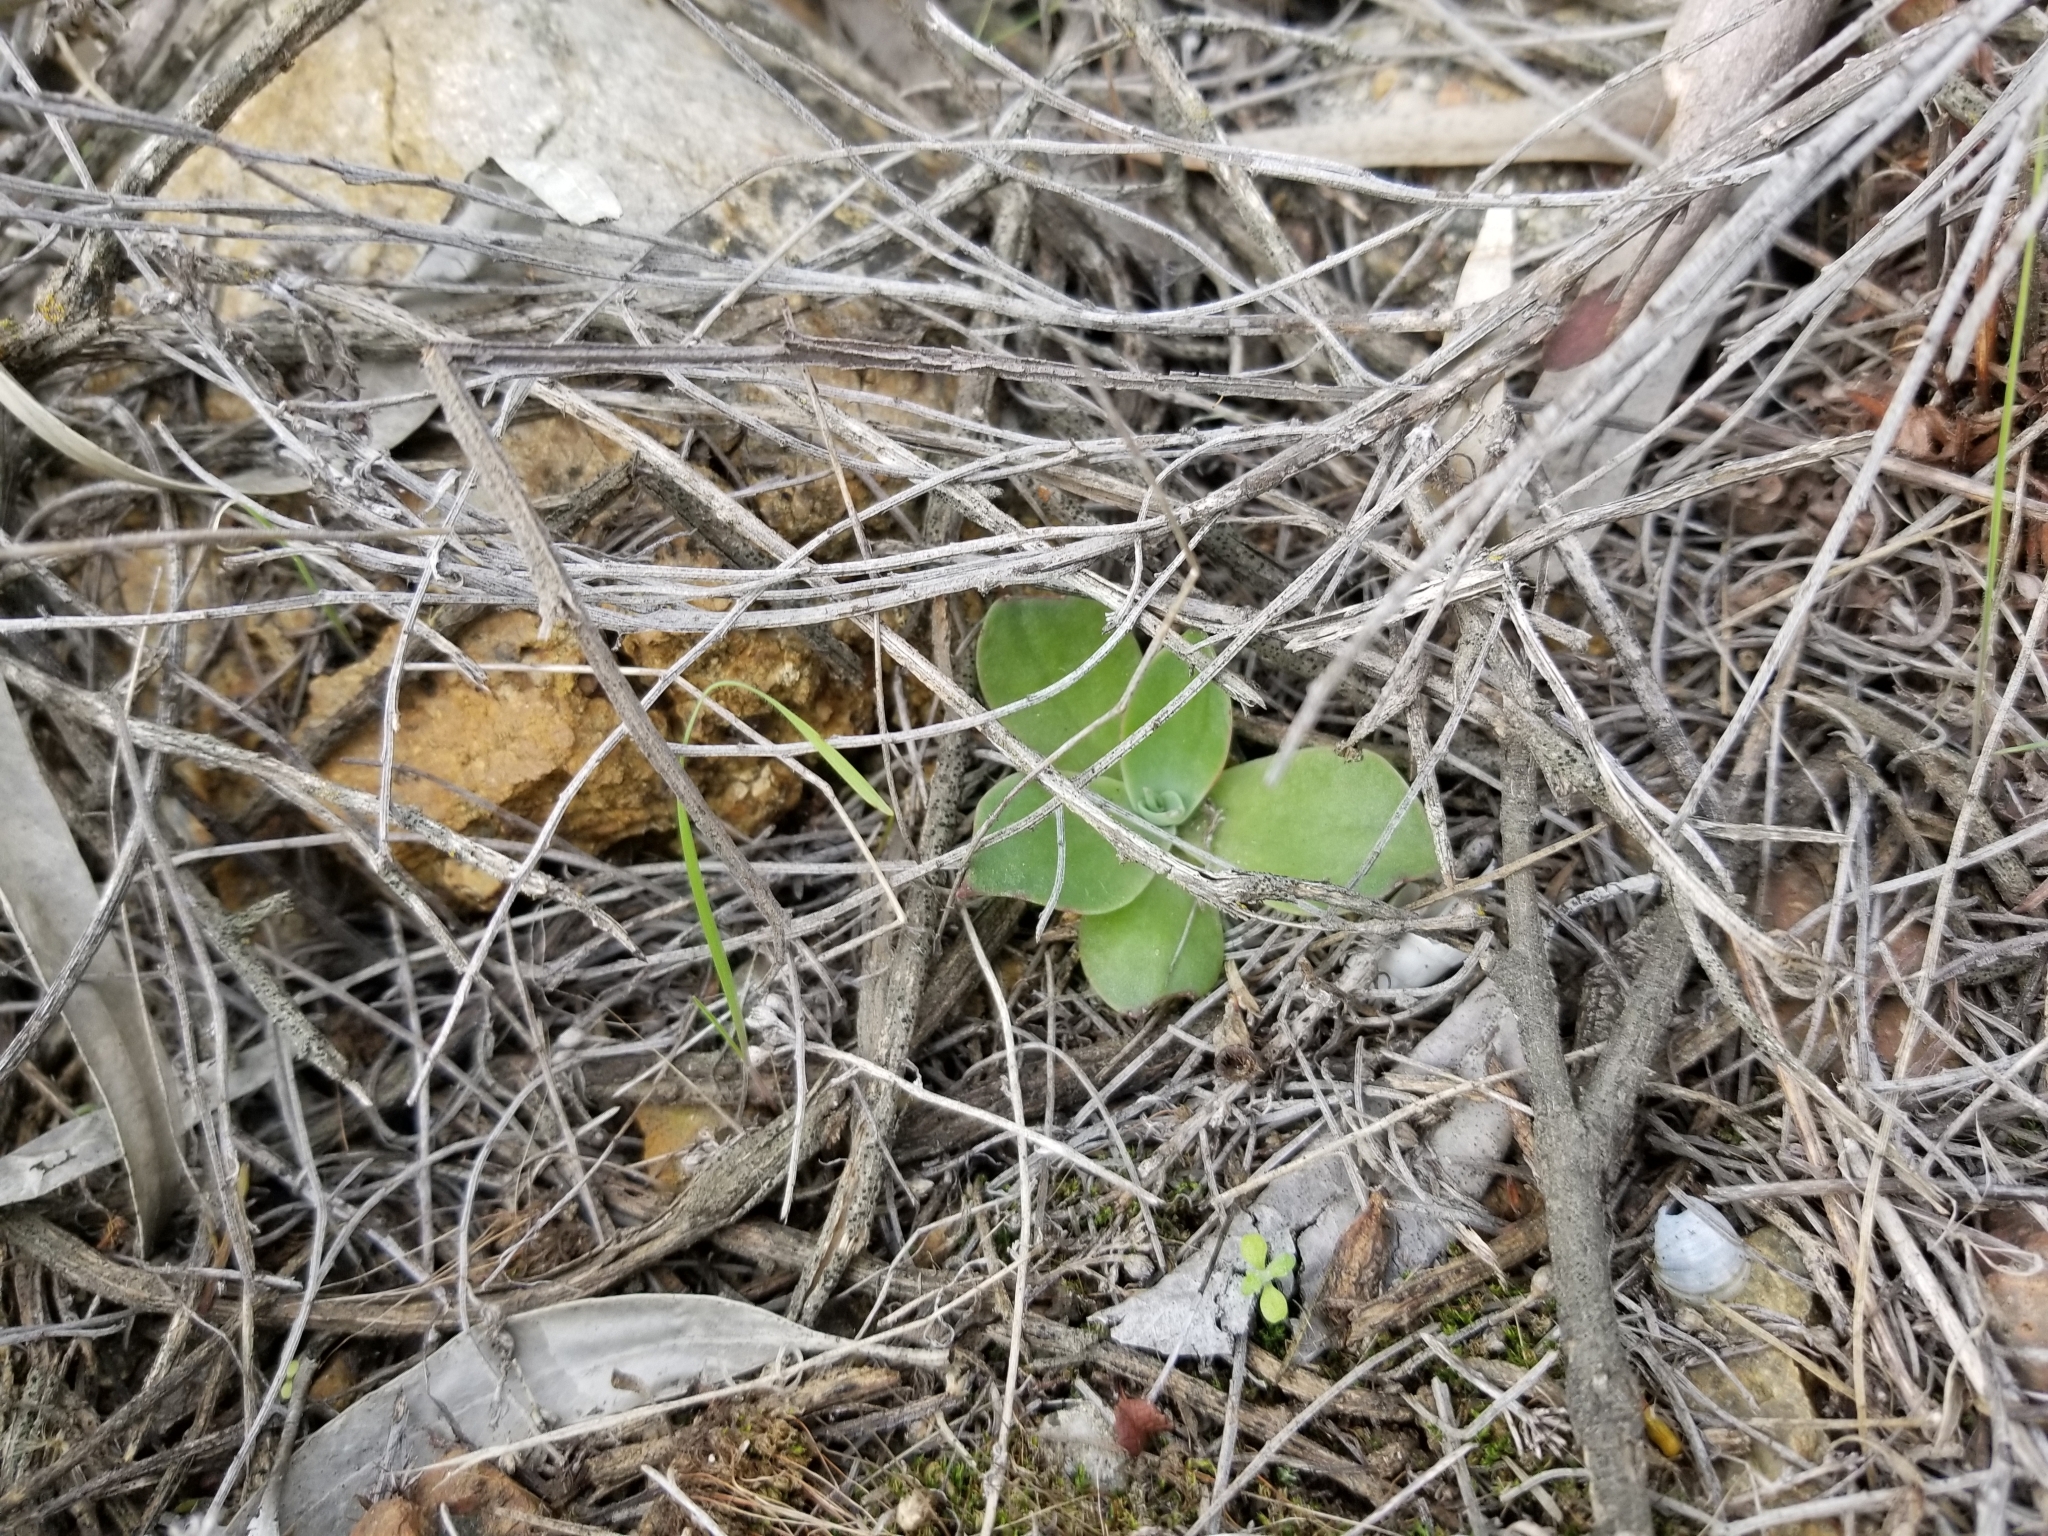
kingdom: Plantae
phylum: Tracheophyta
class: Magnoliopsida
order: Saxifragales
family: Crassulaceae
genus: Dudleya
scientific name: Dudleya pulverulenta
